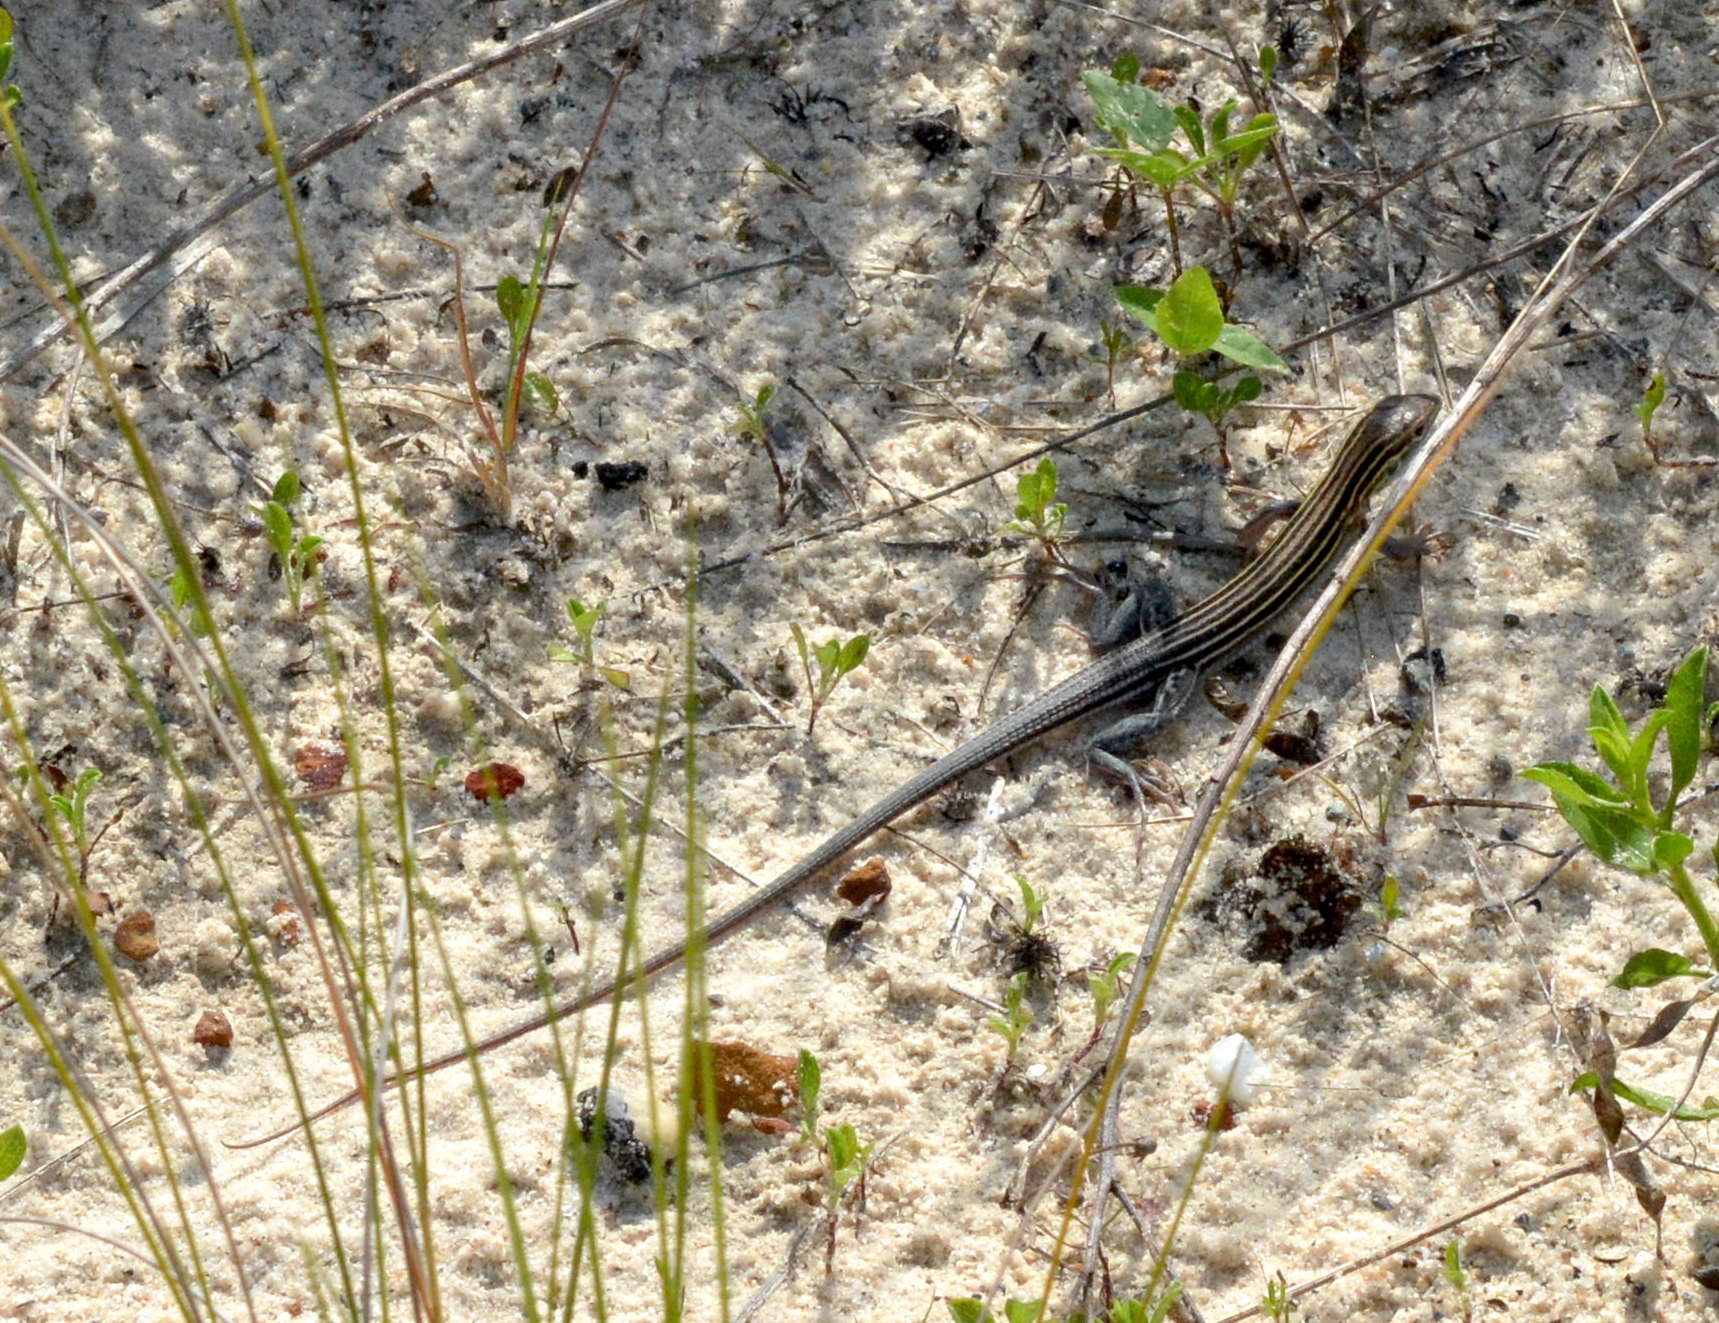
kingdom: Animalia
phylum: Chordata
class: Squamata
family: Teiidae
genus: Aspidoscelis
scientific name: Aspidoscelis sexlineatus
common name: Six-lined racerunner
